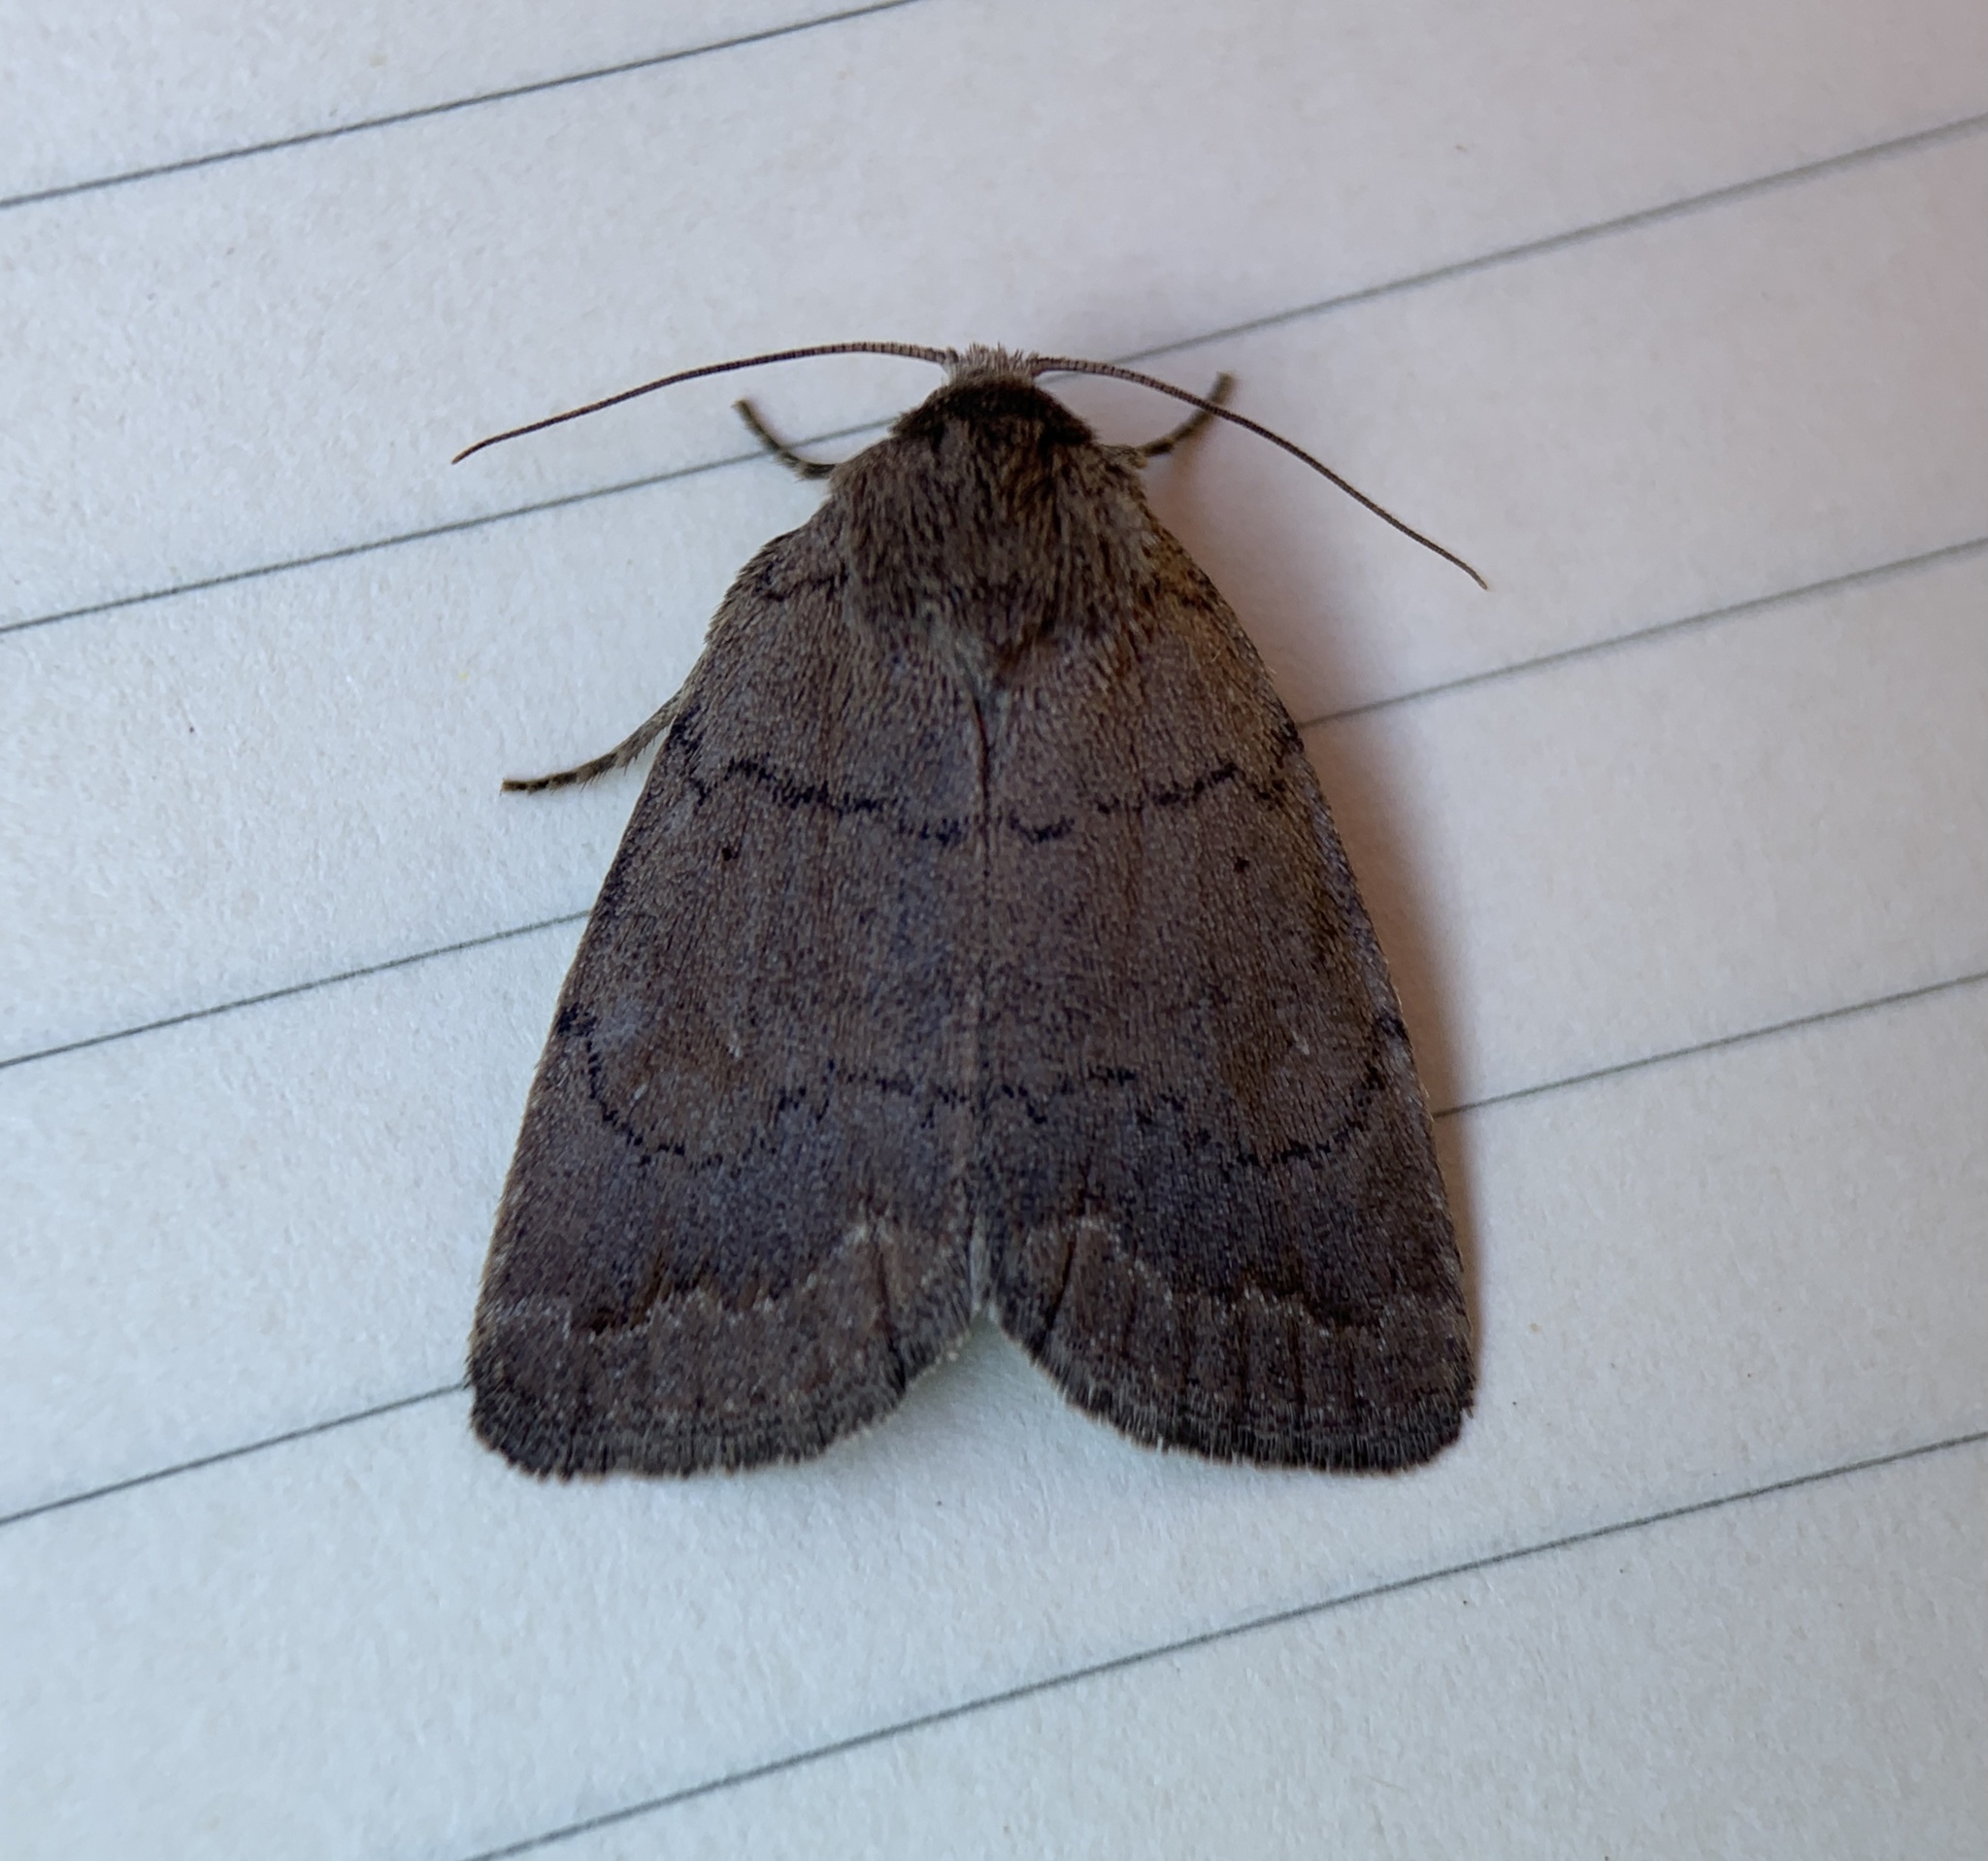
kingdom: Animalia
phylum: Arthropoda
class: Insecta
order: Lepidoptera
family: Noctuidae
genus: Athetis
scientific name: Athetis tarda
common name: Slowpoke moth
